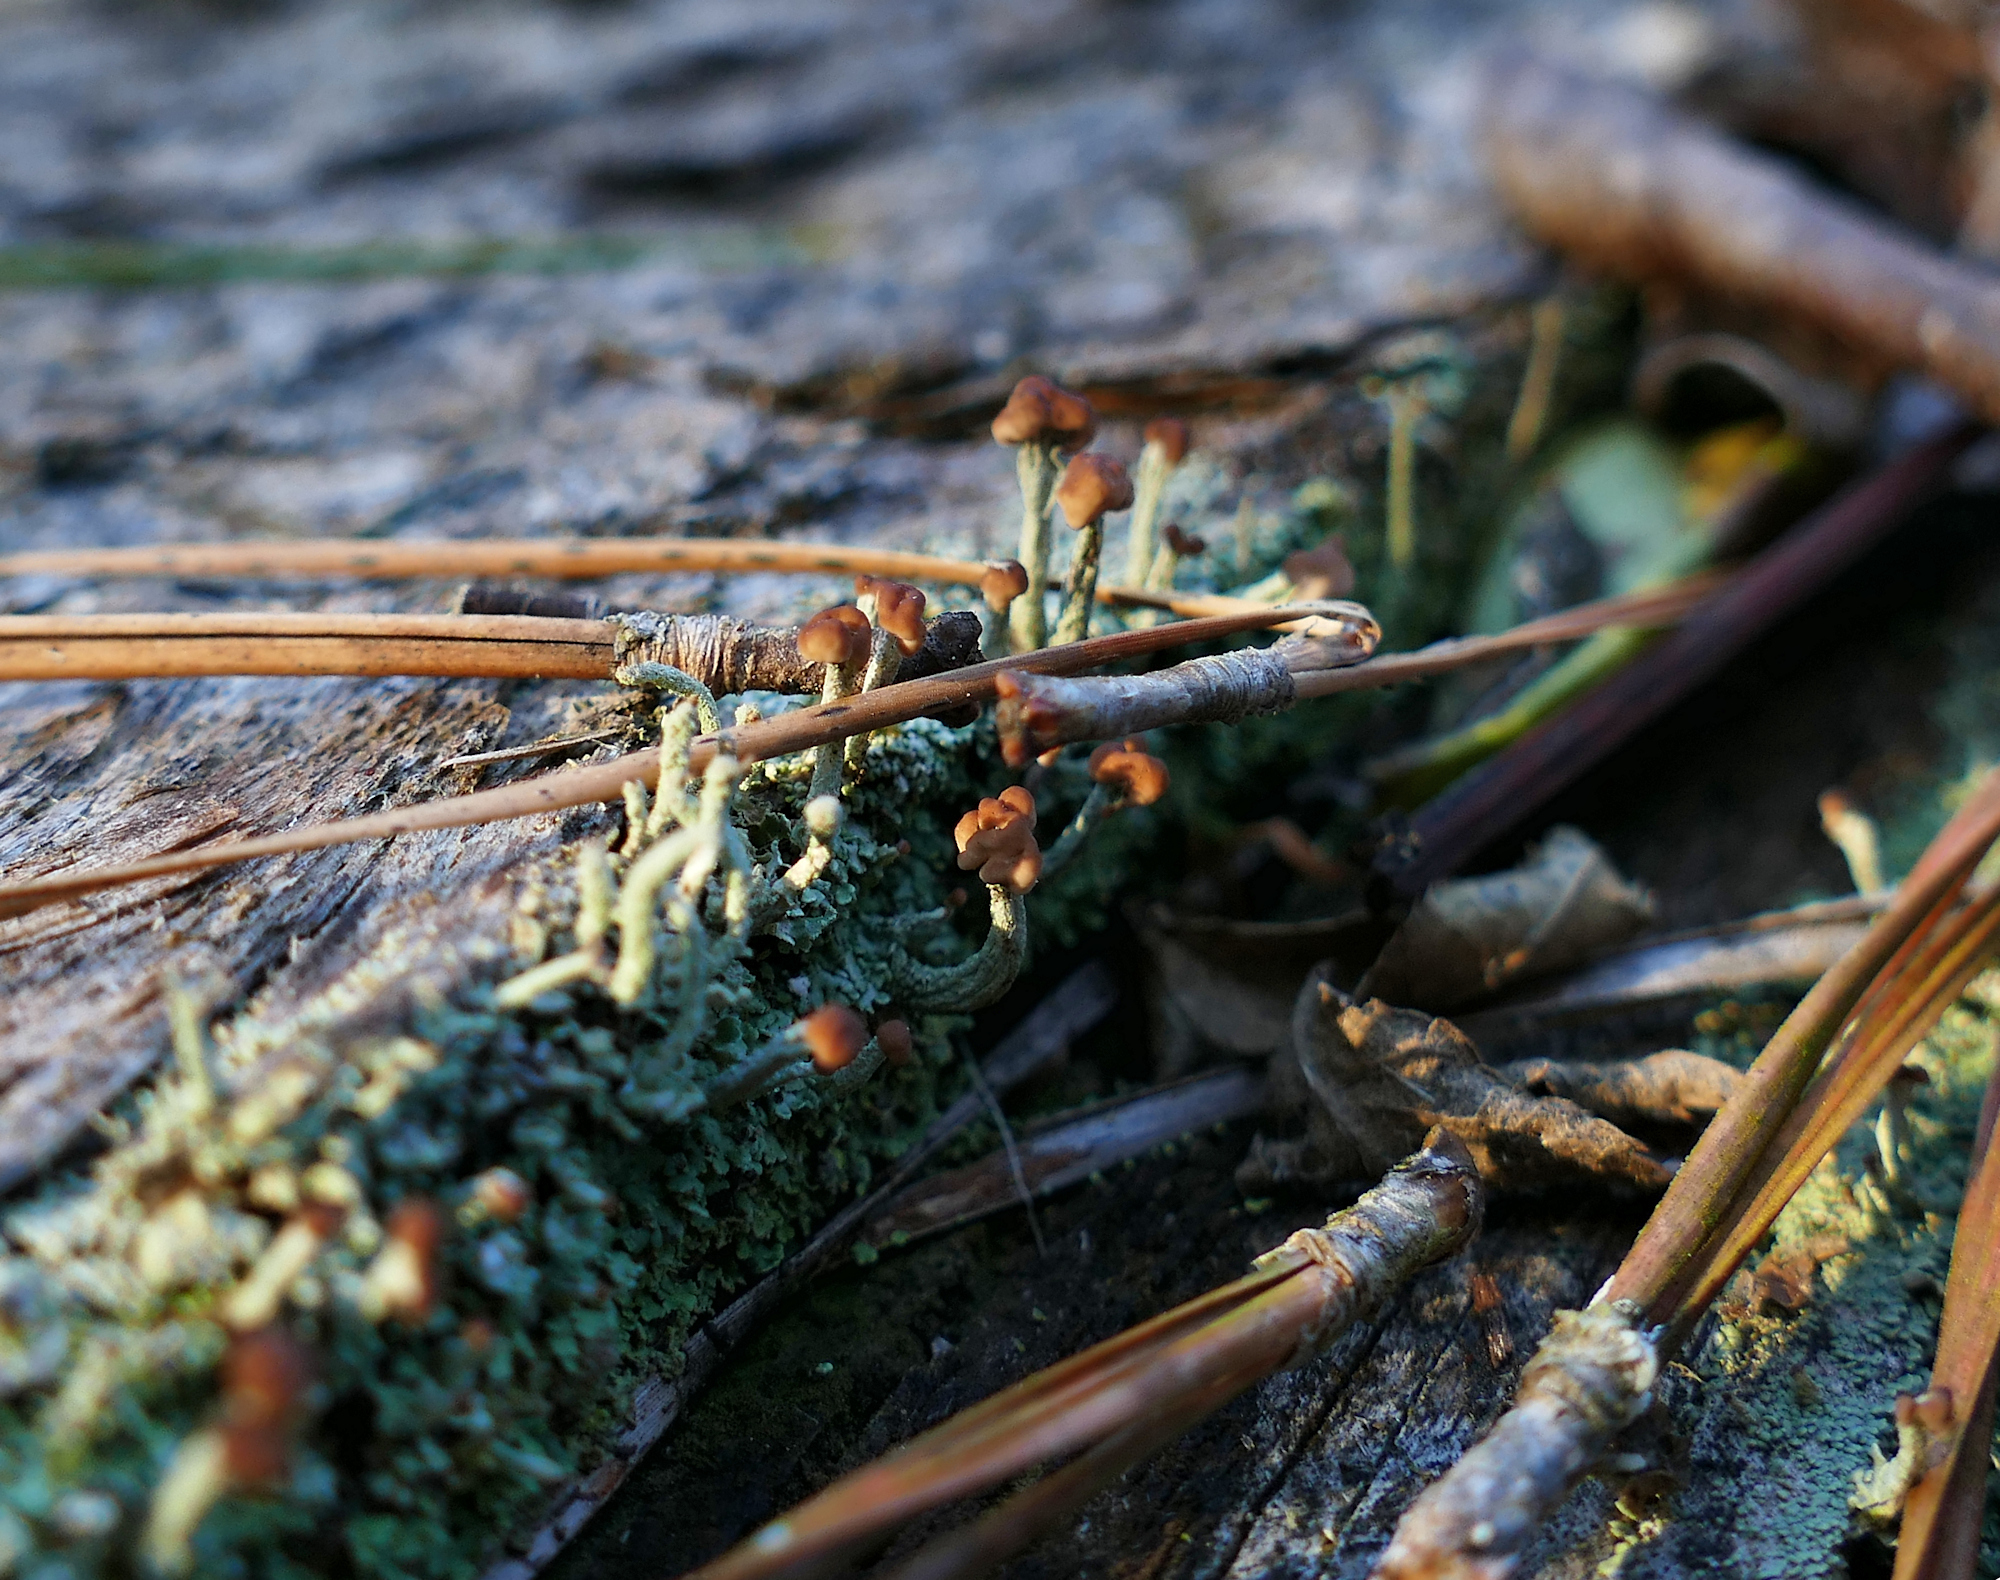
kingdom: Fungi
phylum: Ascomycota
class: Lecanoromycetes
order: Lecanorales
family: Cladoniaceae
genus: Cladonia
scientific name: Cladonia peziziformis
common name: Cup lichen
